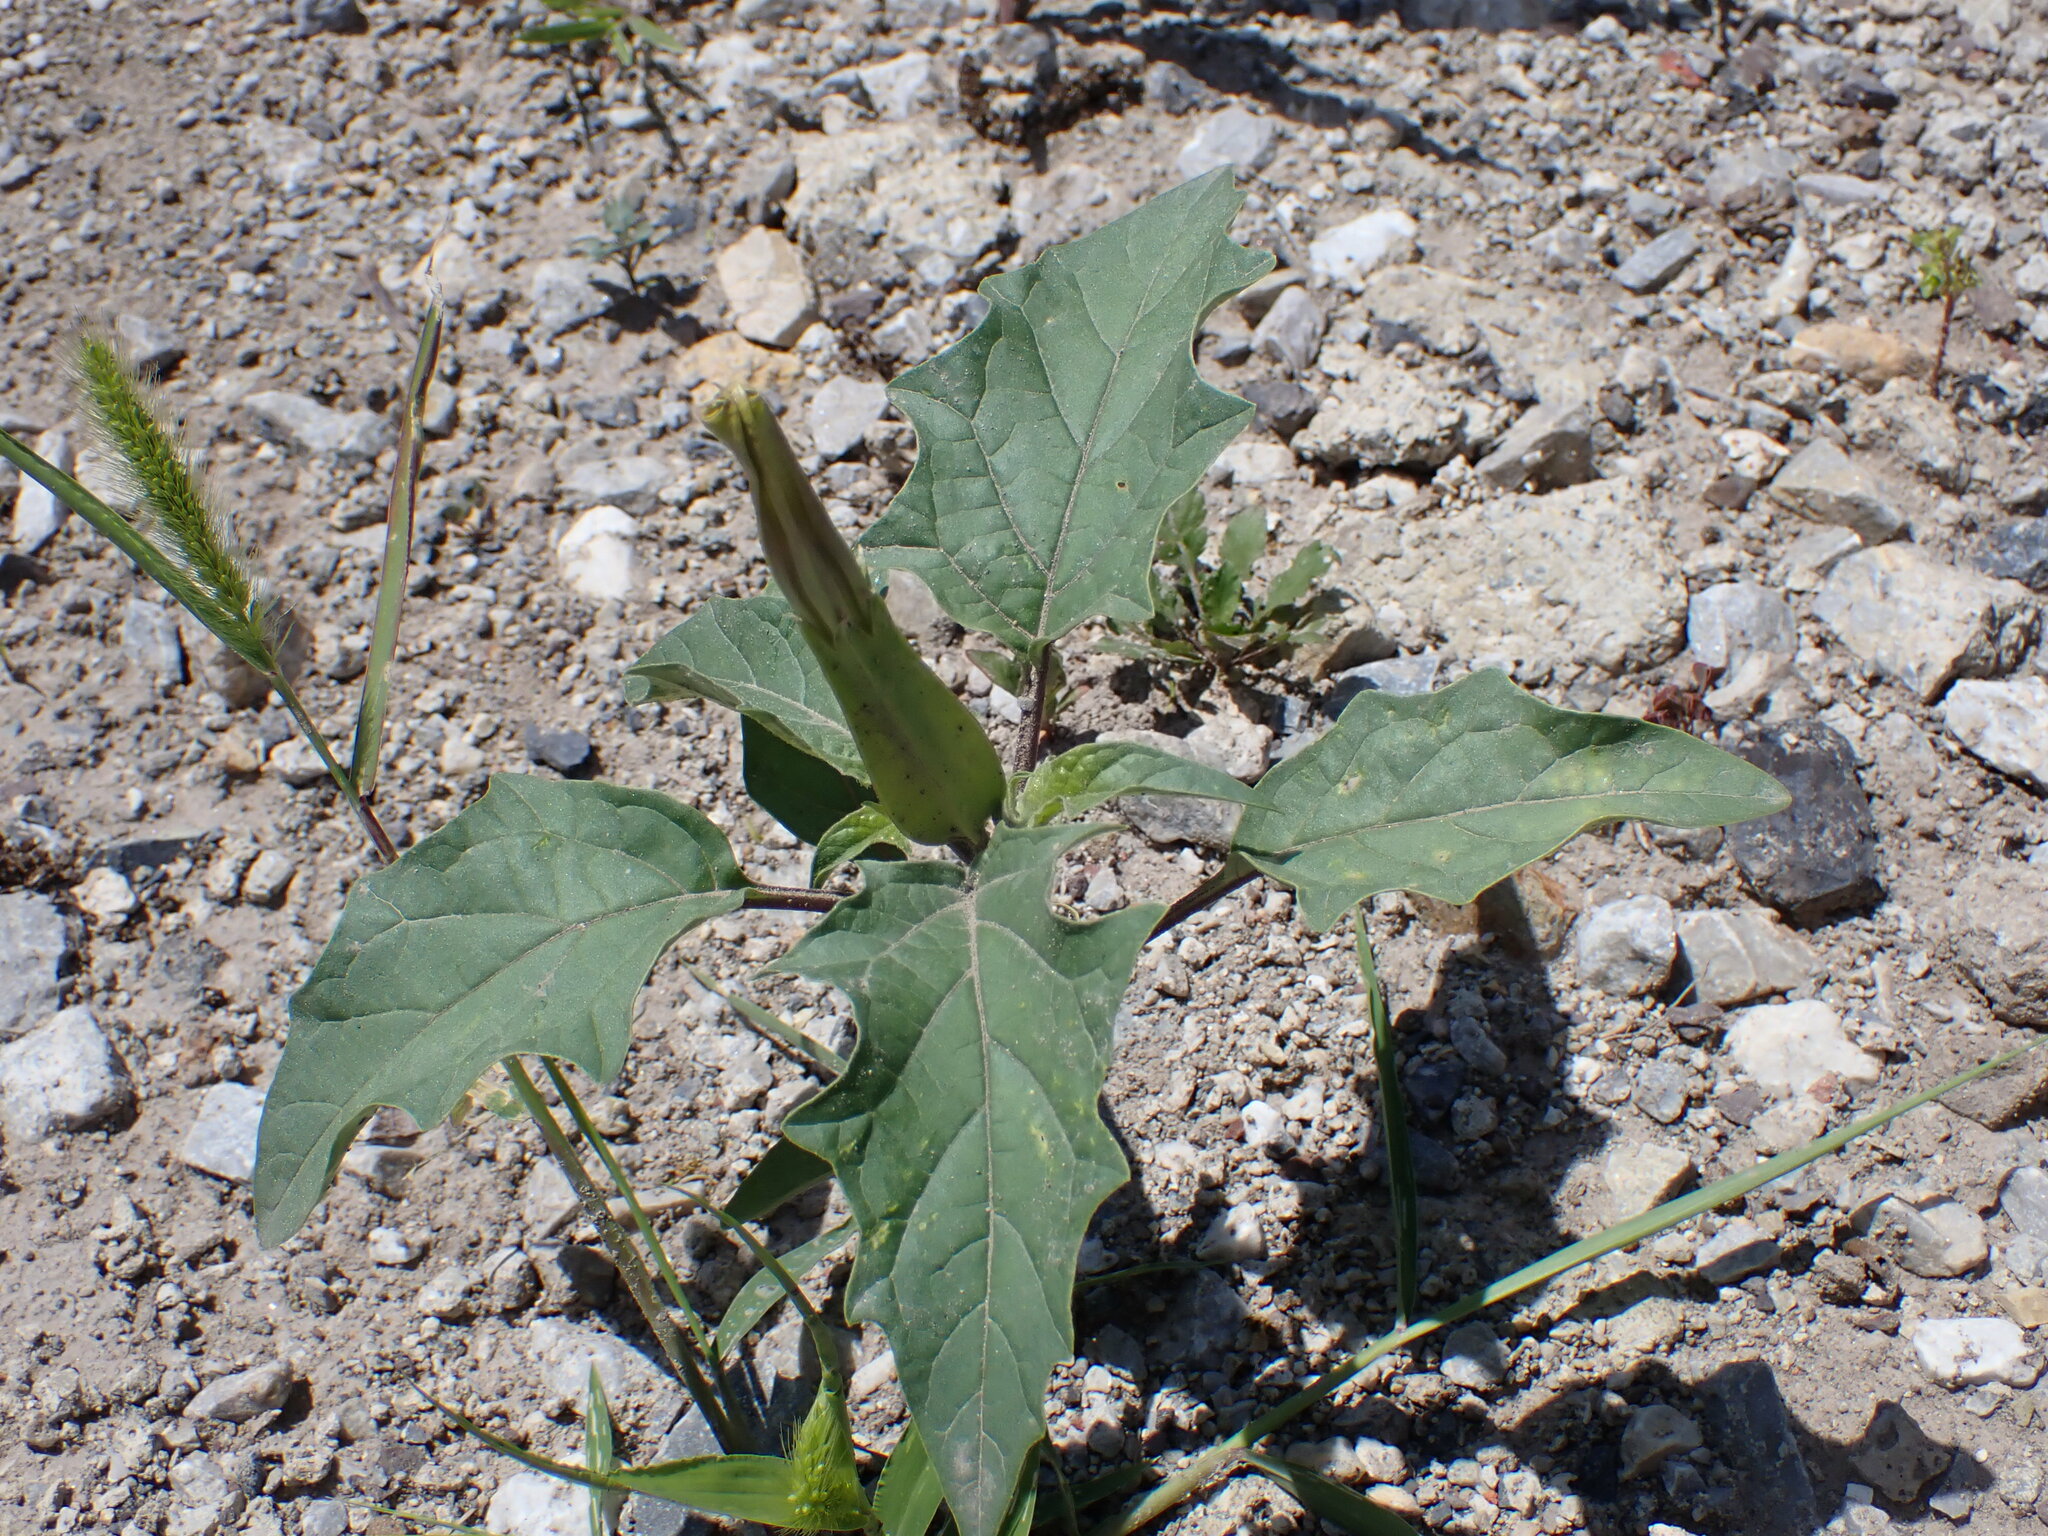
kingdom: Plantae
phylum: Tracheophyta
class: Magnoliopsida
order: Solanales
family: Solanaceae
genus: Datura
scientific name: Datura stramonium
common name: Thorn-apple
